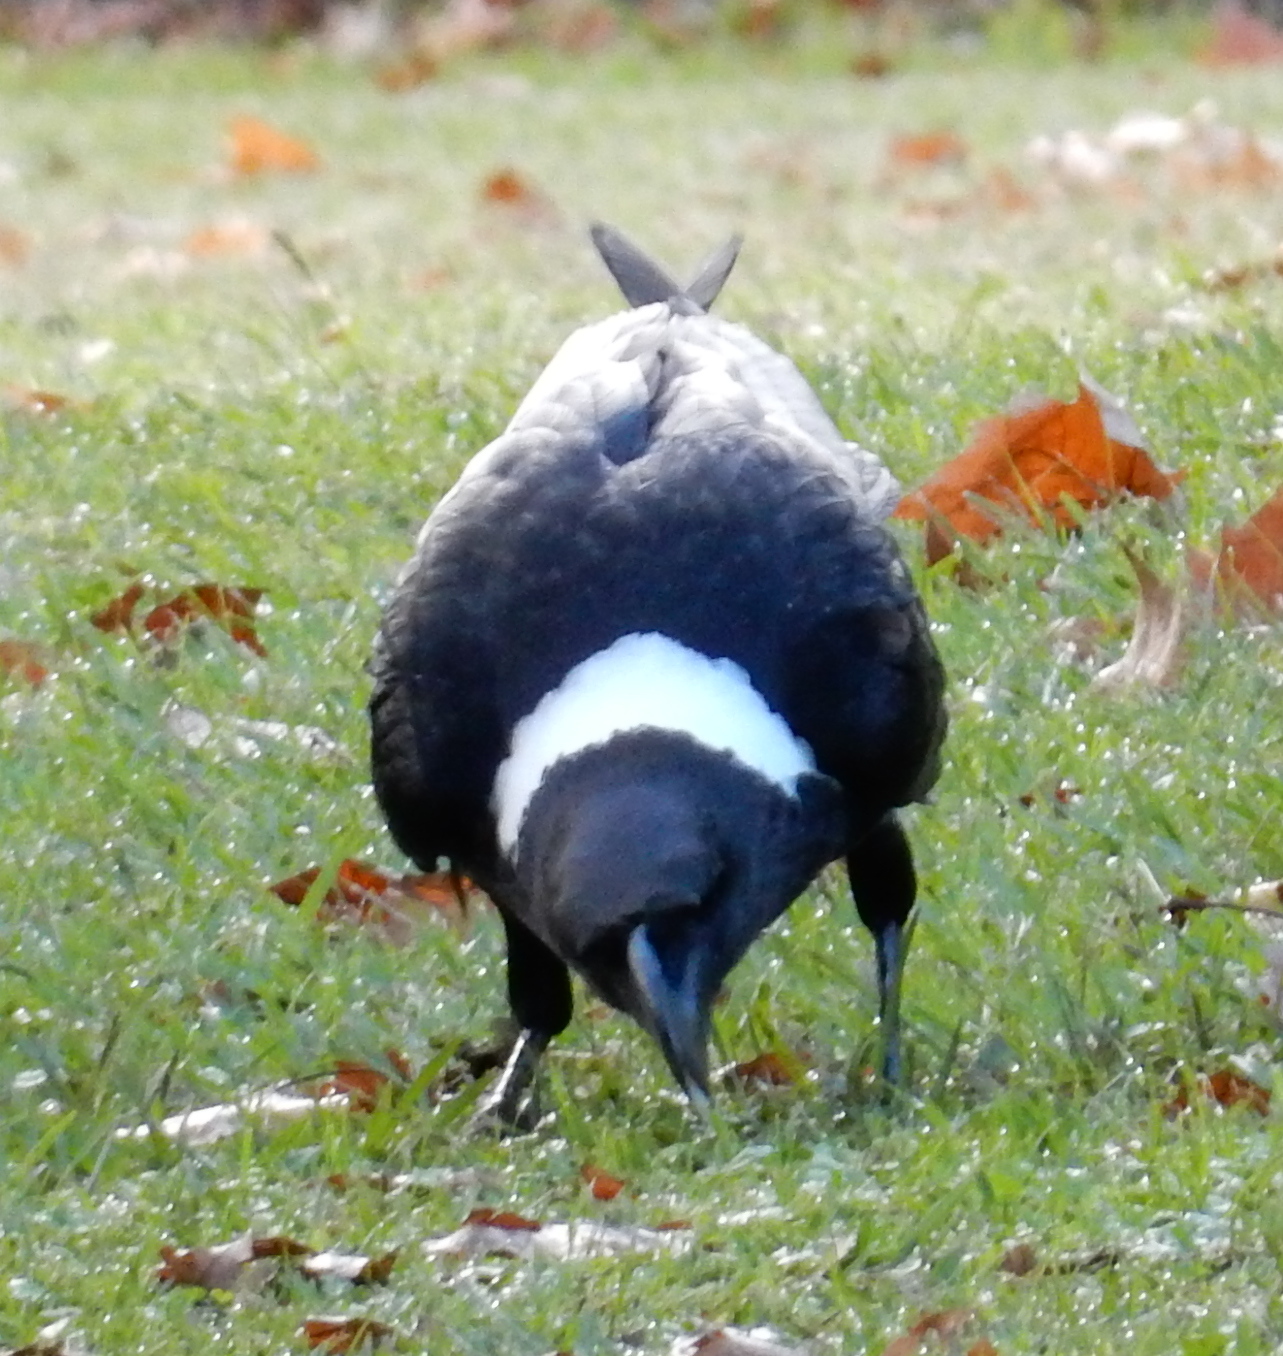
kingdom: Animalia
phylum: Chordata
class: Aves
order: Passeriformes
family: Corvidae
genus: Corvus
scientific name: Corvus albicollis
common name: White-necked raven
